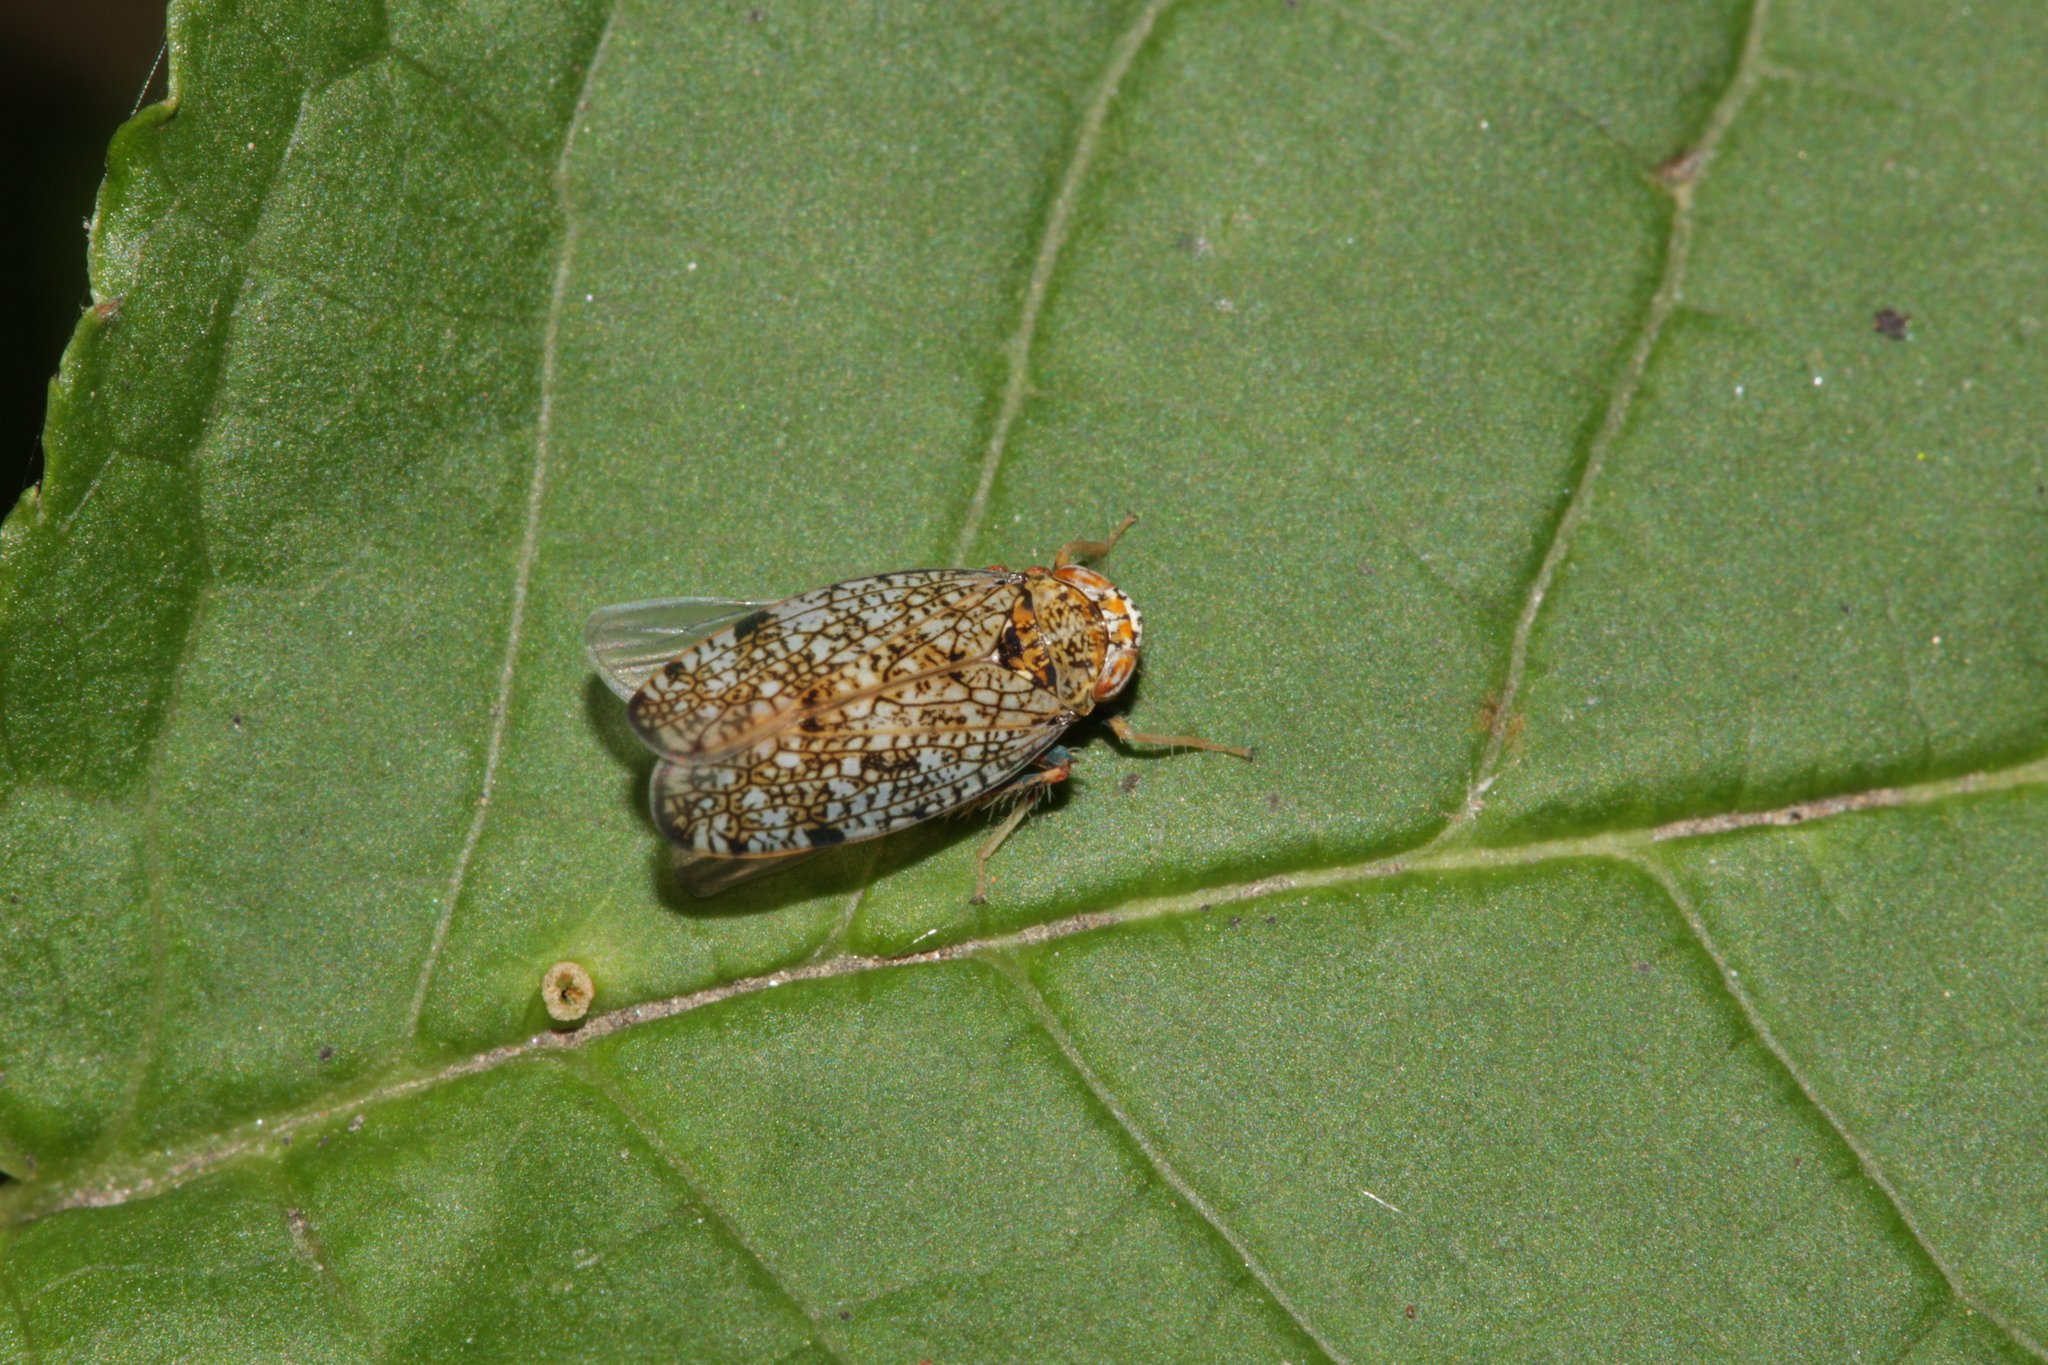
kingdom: Animalia
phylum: Arthropoda
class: Insecta
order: Hemiptera
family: Cicadellidae
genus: Orientus
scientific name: Orientus ishidae
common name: Japanese leafhopper
